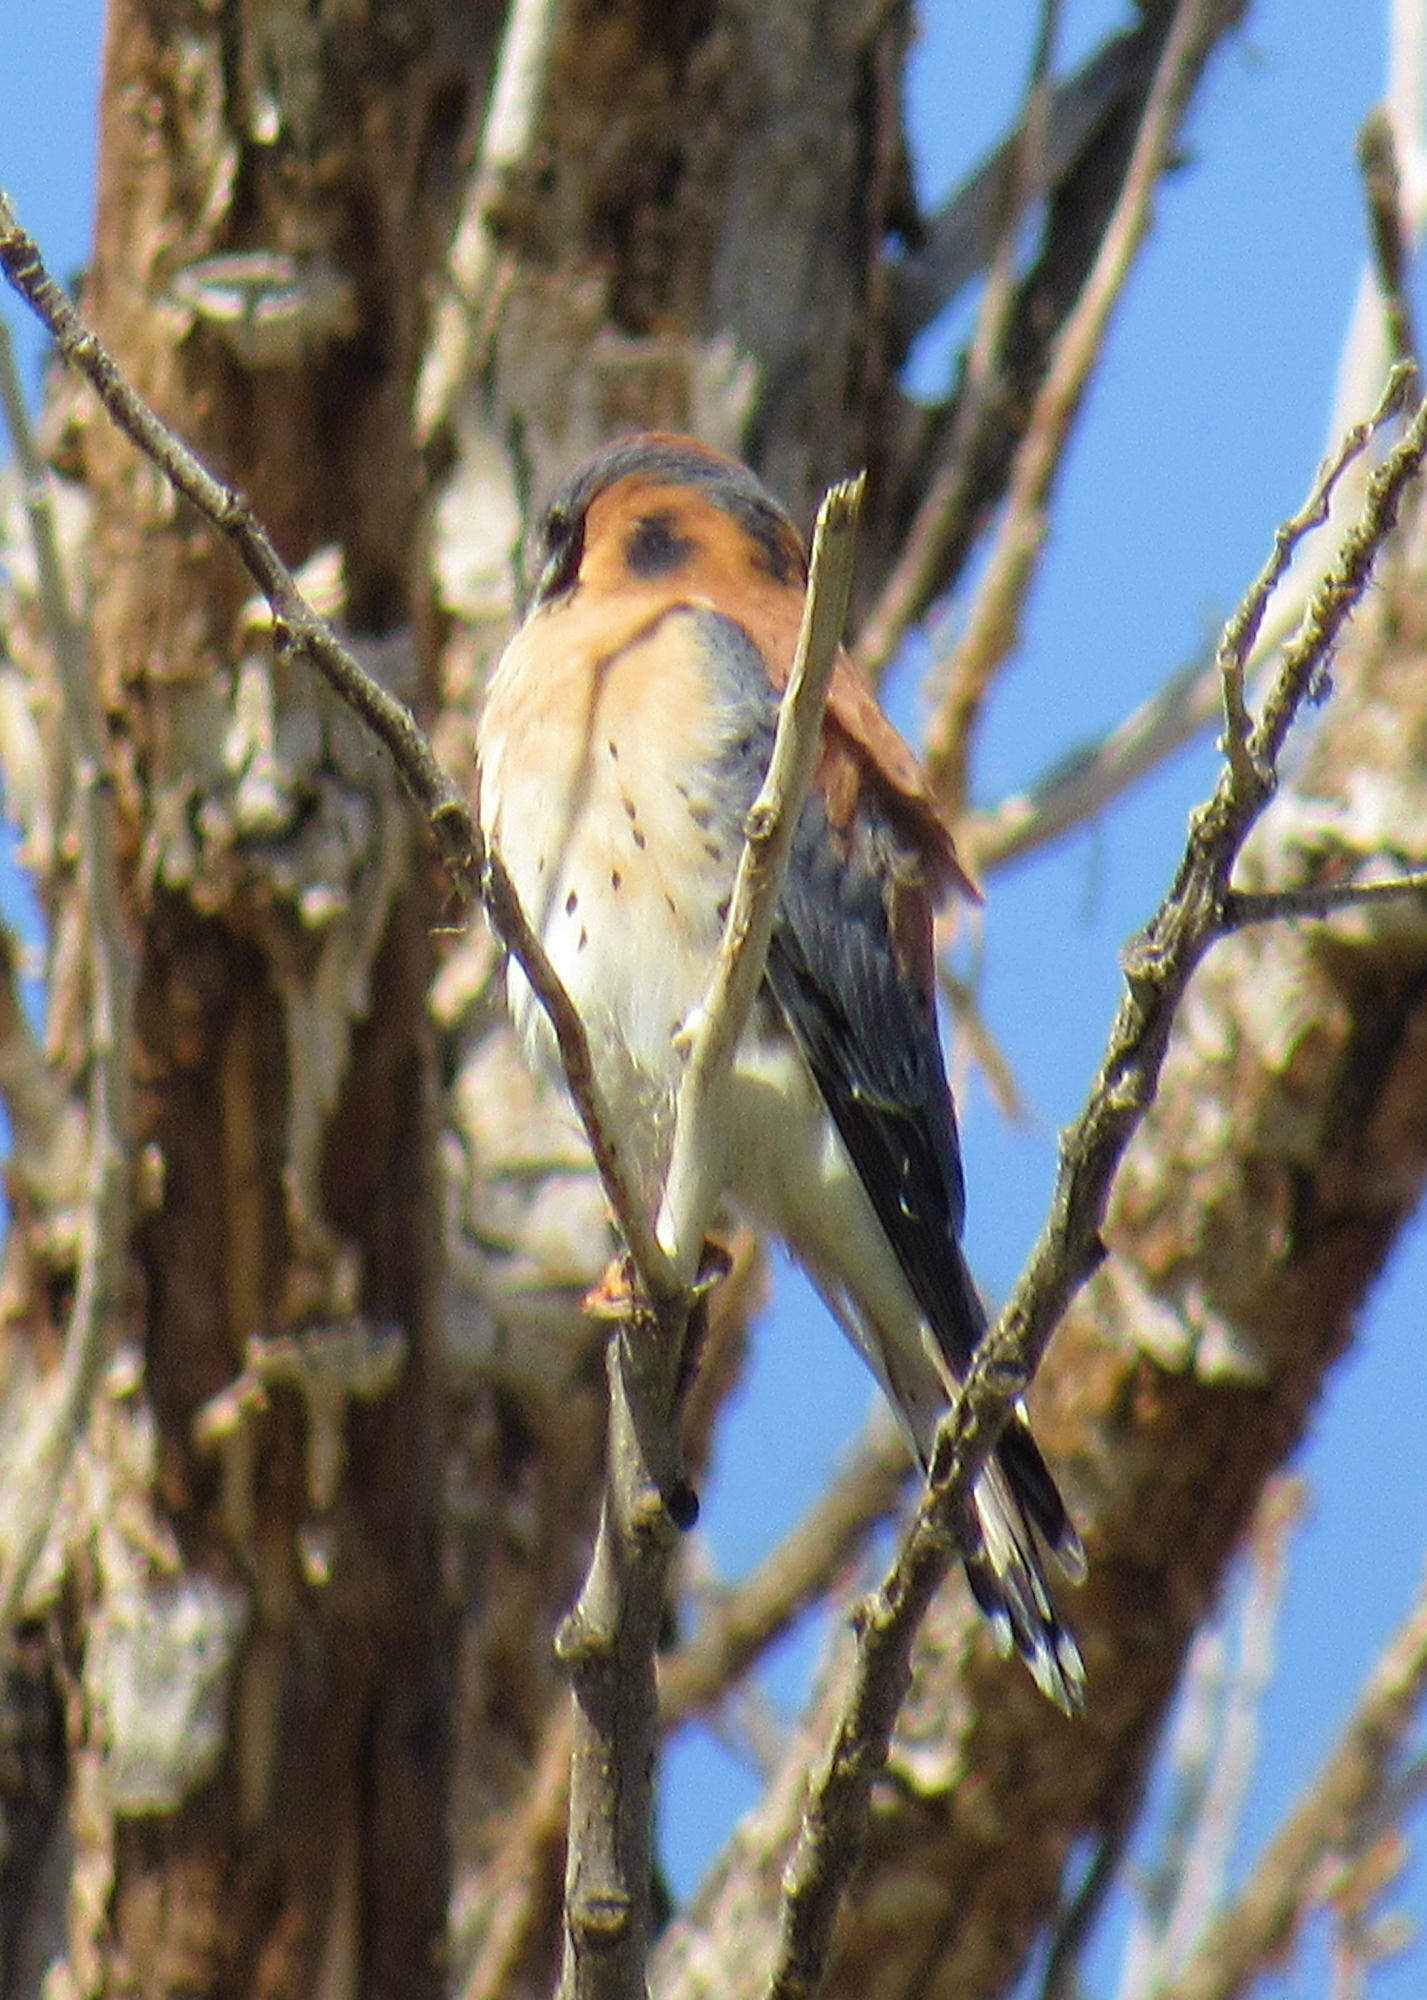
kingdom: Animalia
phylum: Chordata
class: Aves
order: Falconiformes
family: Falconidae
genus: Falco
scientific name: Falco sparverius
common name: American kestrel
